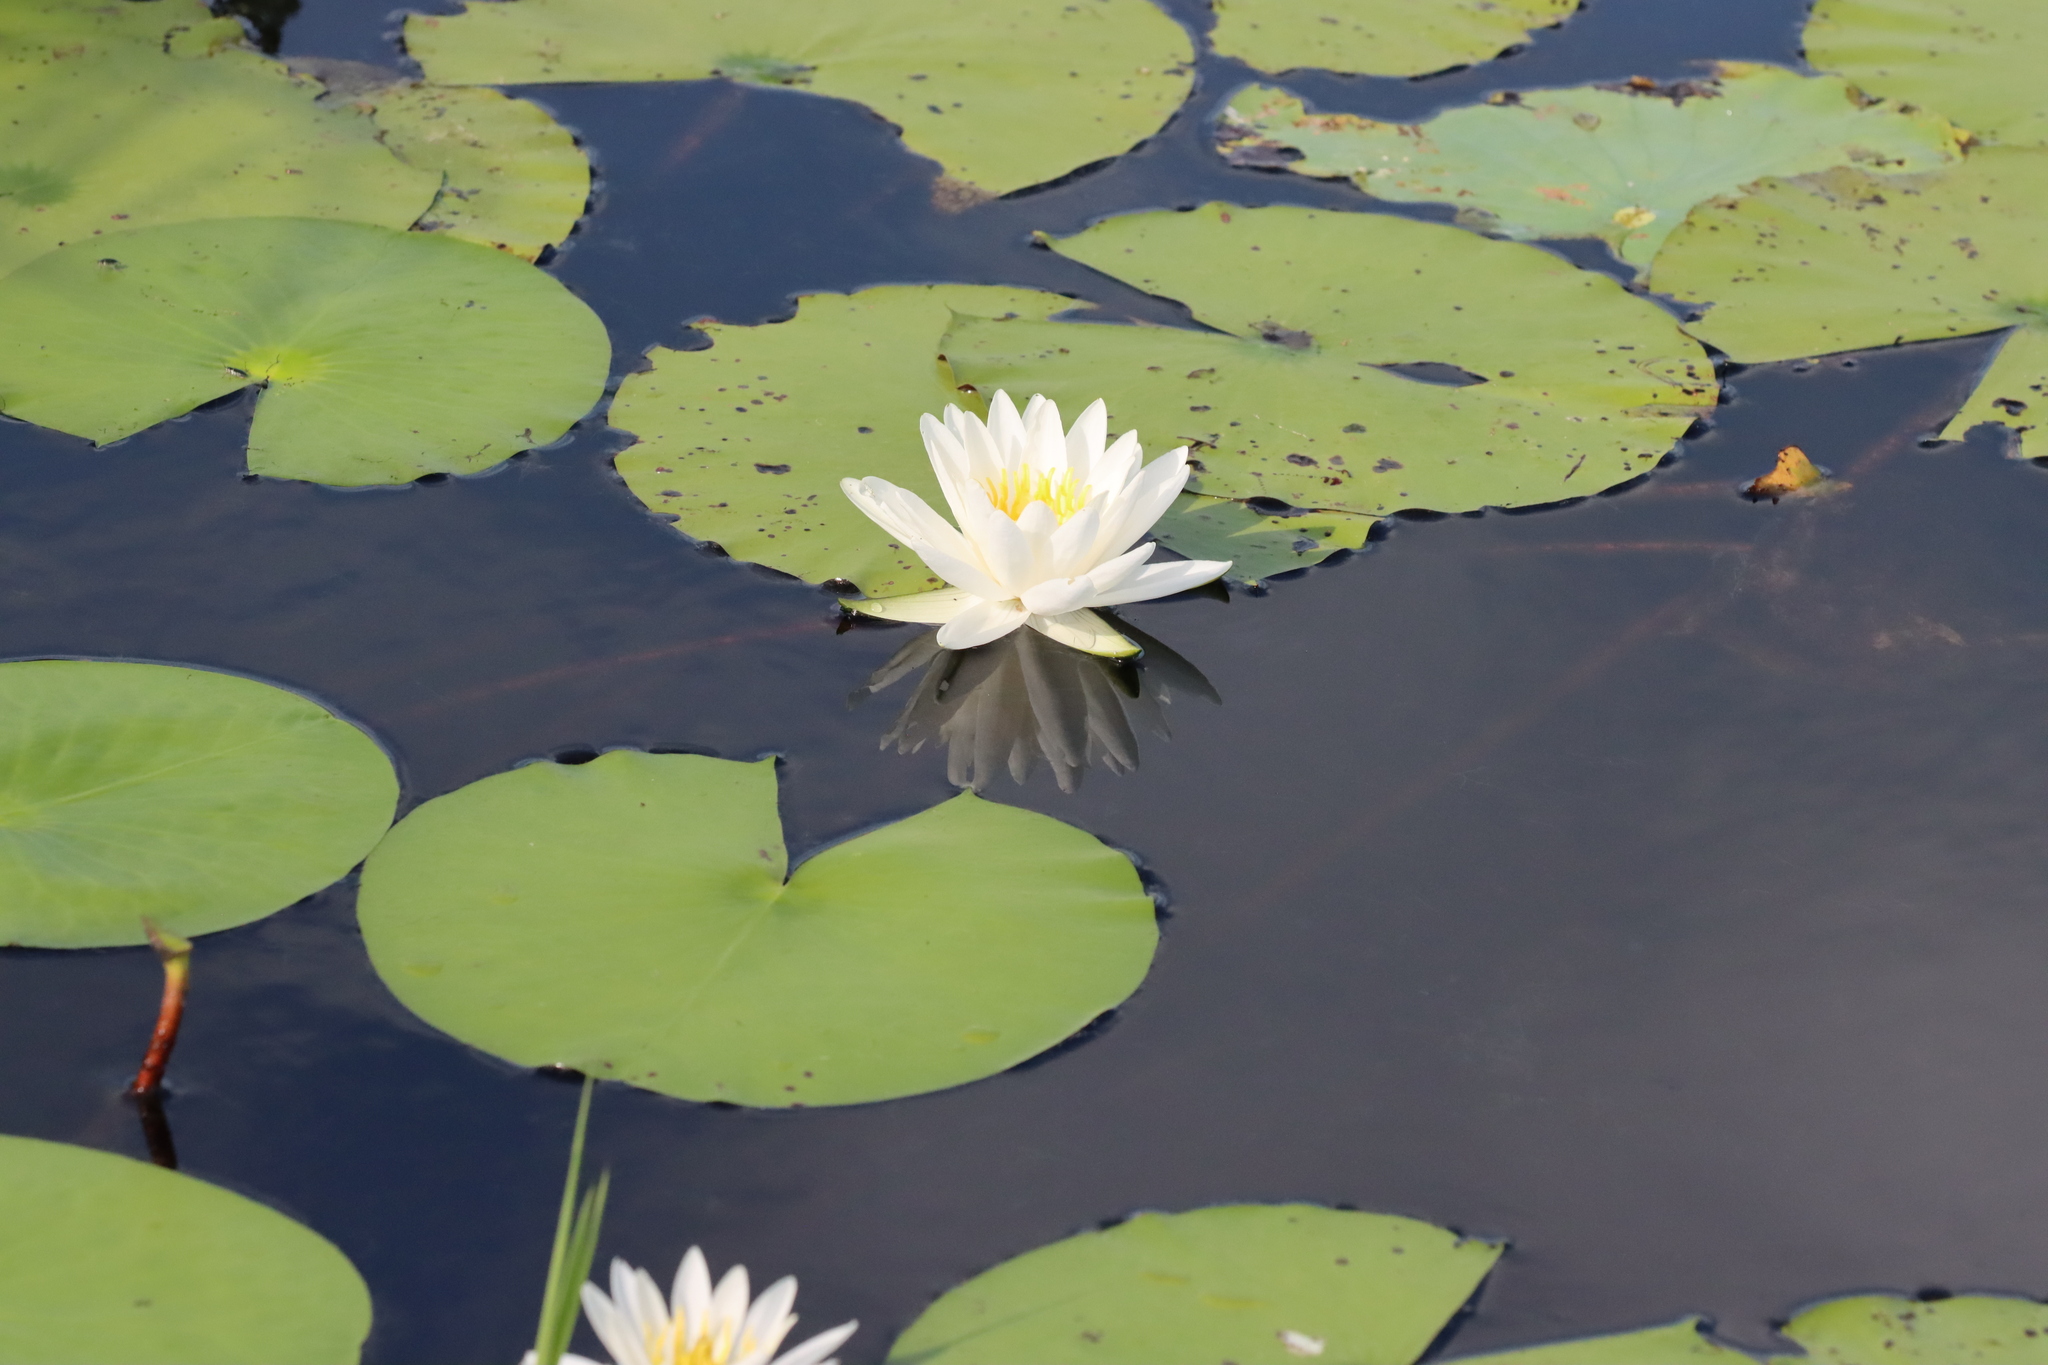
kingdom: Plantae
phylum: Tracheophyta
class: Magnoliopsida
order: Nymphaeales
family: Nymphaeaceae
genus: Nymphaea
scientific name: Nymphaea odorata
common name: Fragrant water-lily
